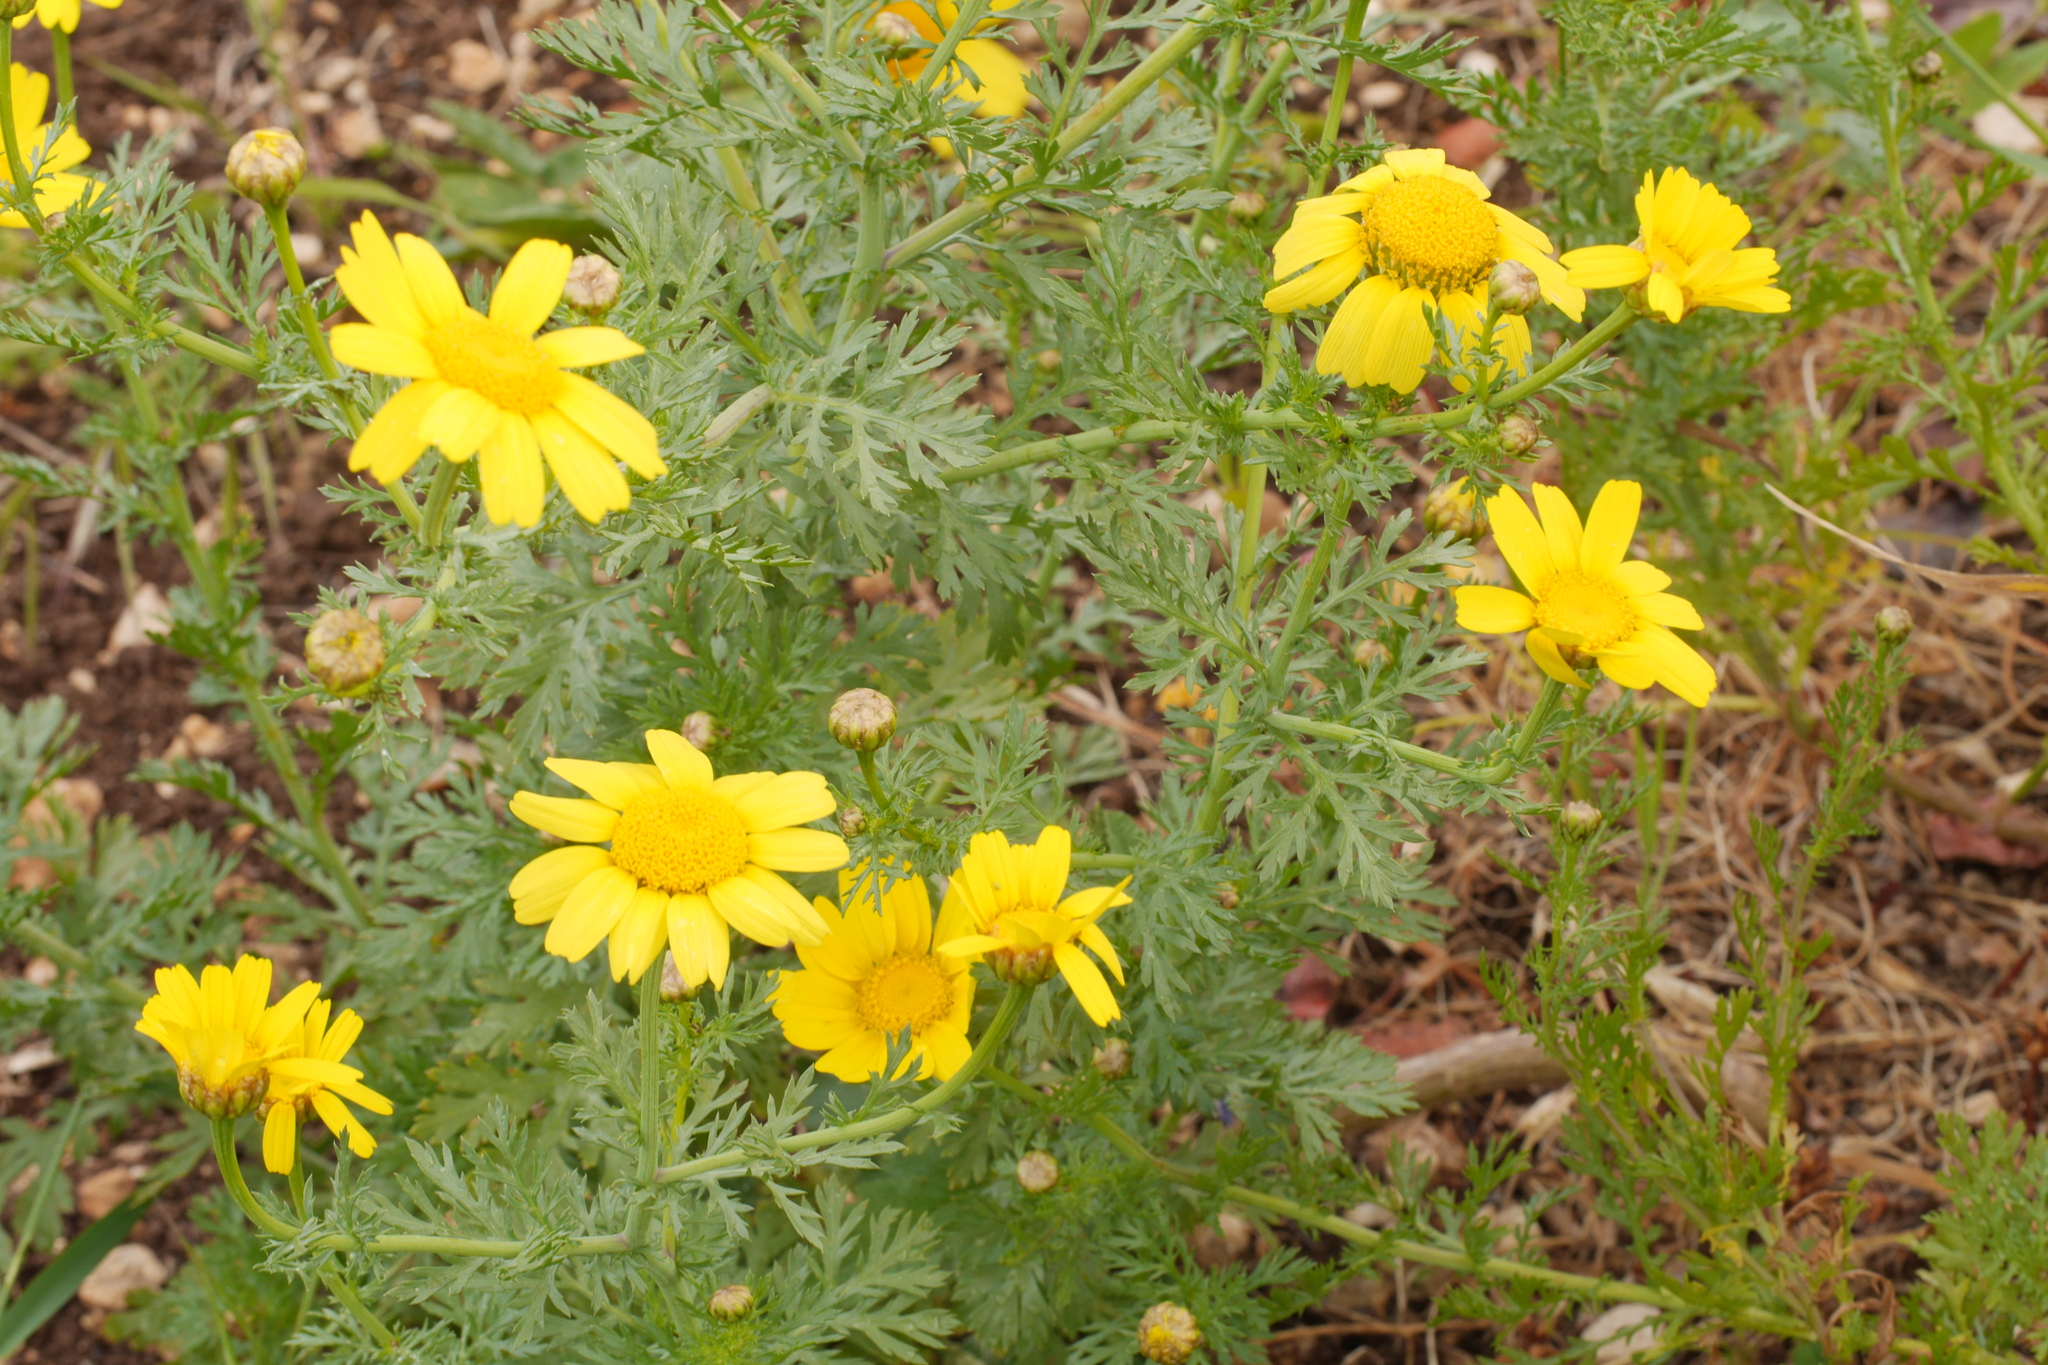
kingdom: Plantae
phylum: Tracheophyta
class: Magnoliopsida
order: Asterales
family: Asteraceae
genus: Glebionis
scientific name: Glebionis coronaria
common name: Crowndaisy
